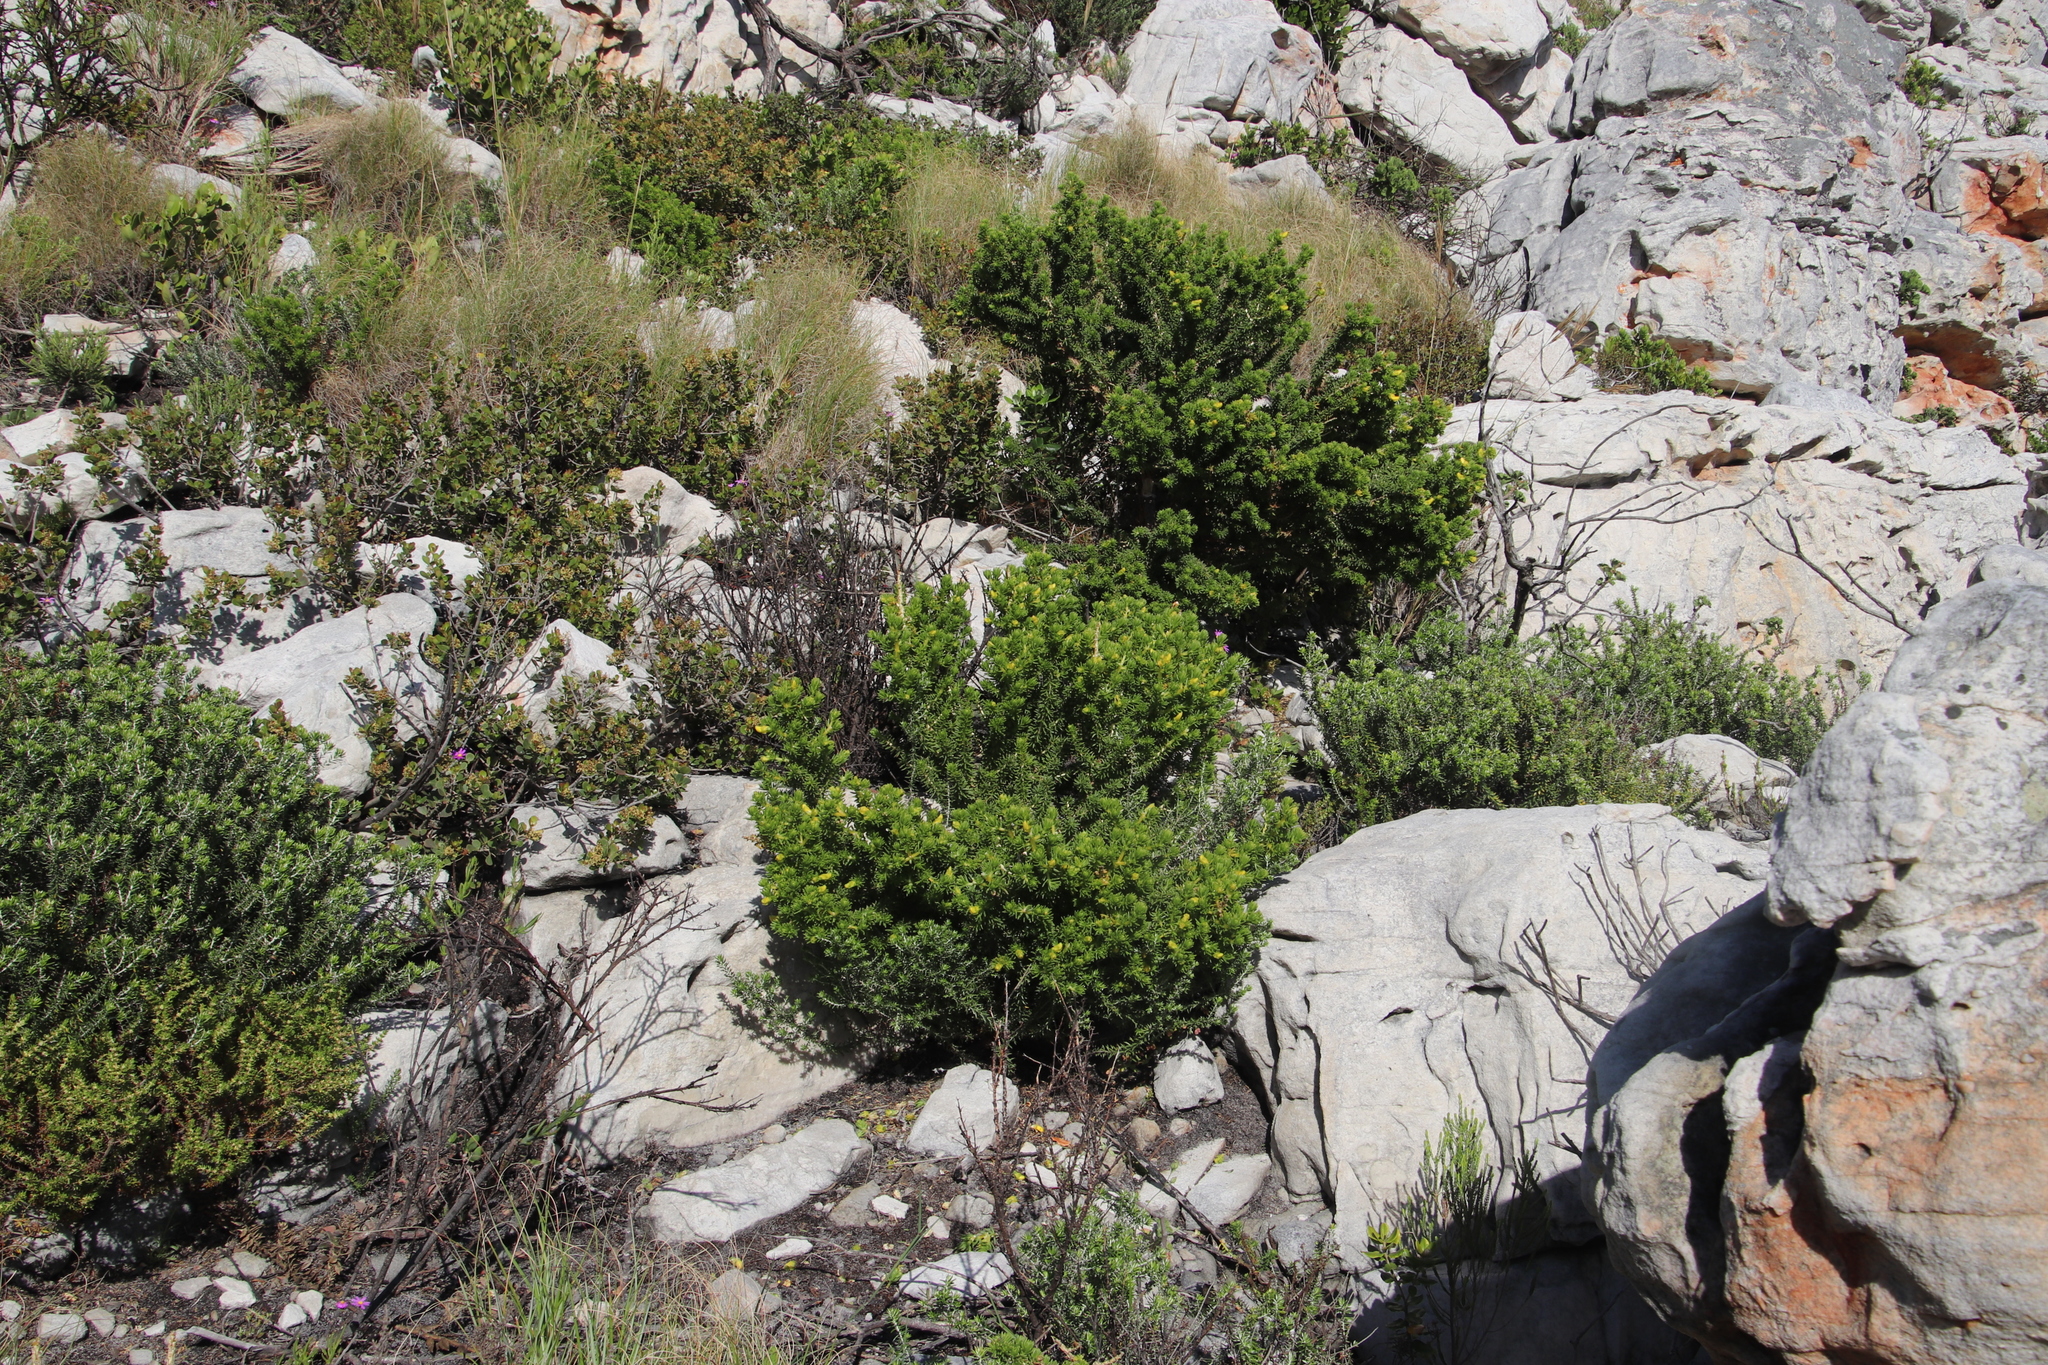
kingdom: Plantae
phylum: Tracheophyta
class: Magnoliopsida
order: Fabales
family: Fabaceae
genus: Aspalathus
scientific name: Aspalathus capensis
